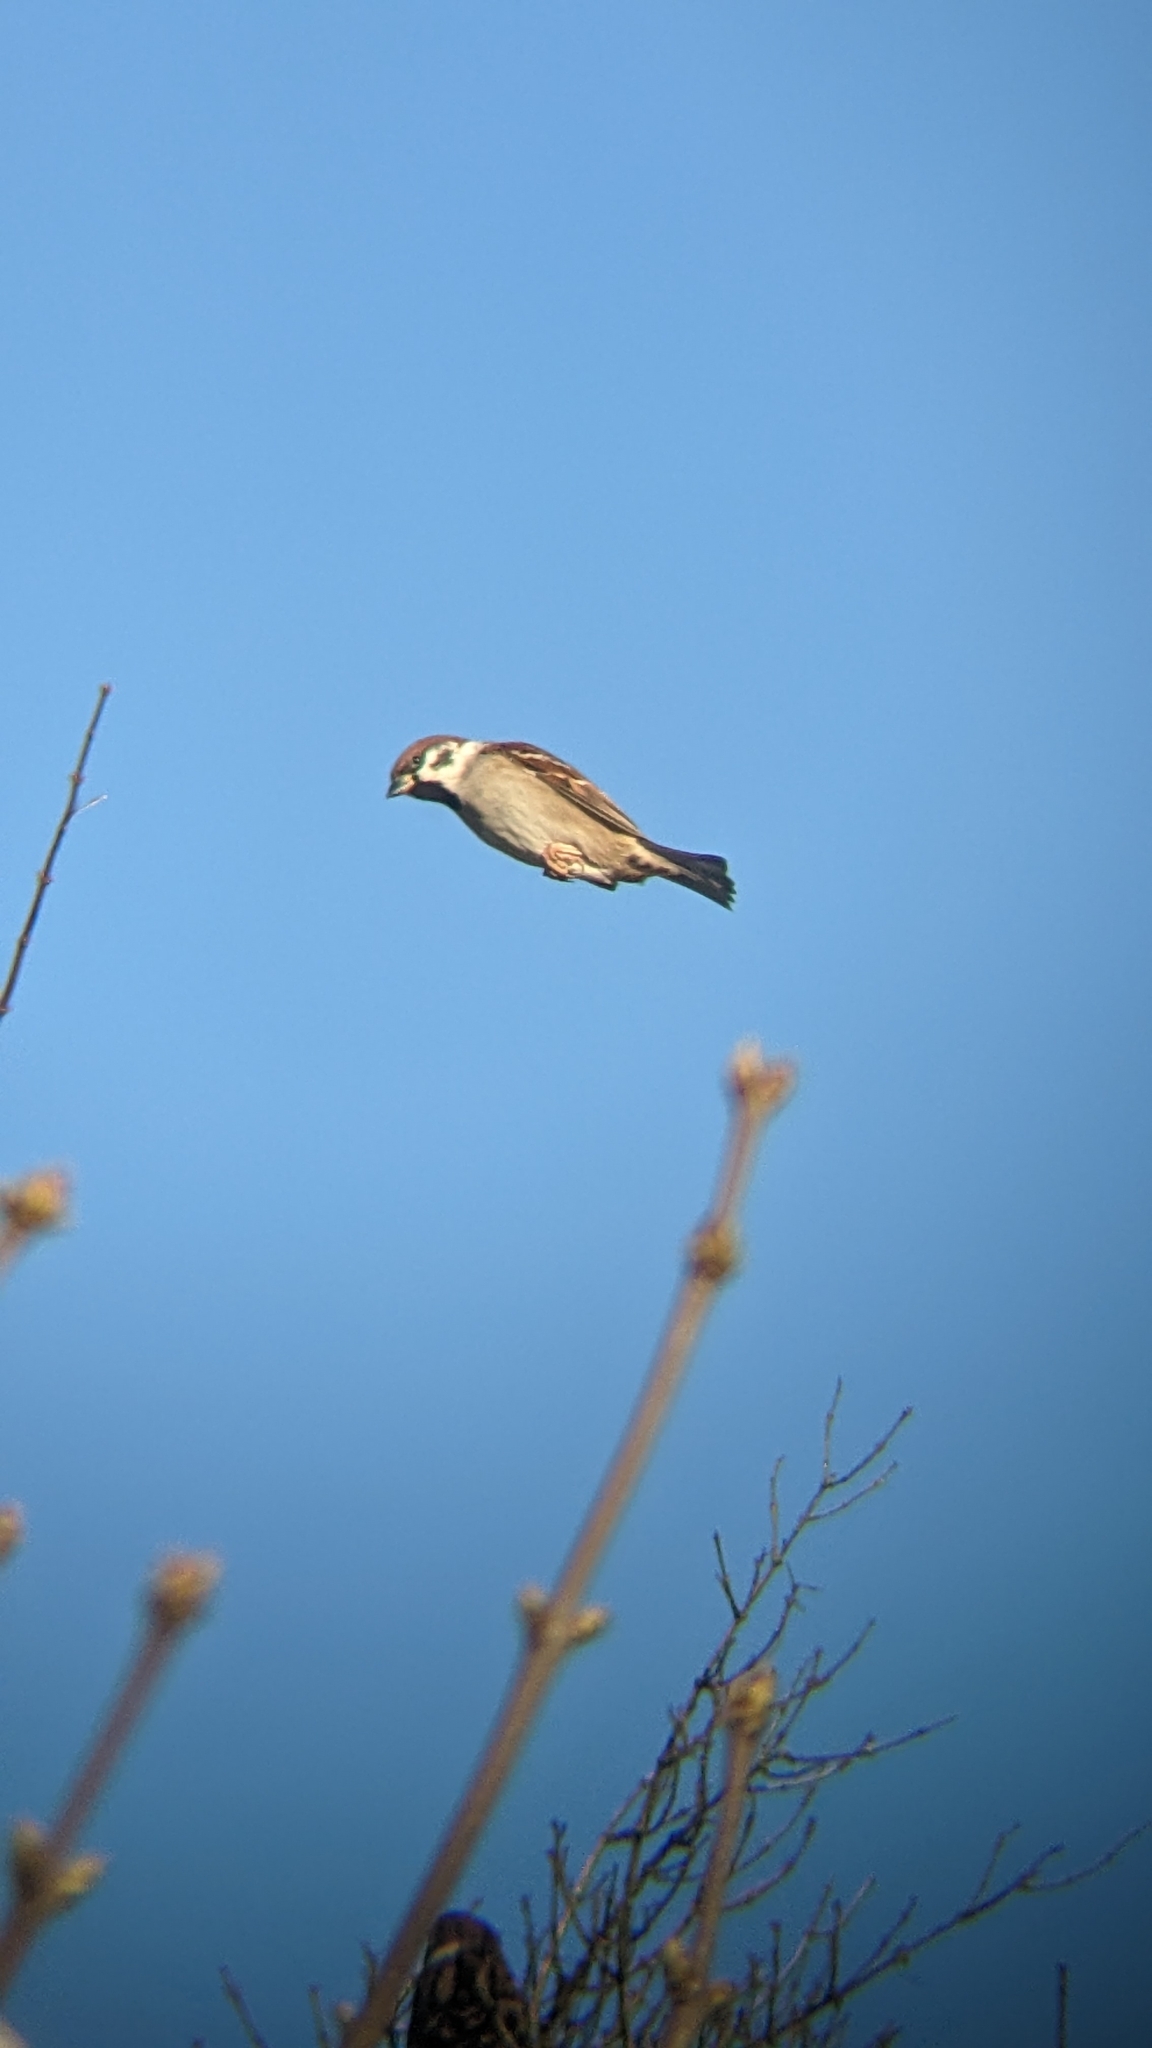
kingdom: Animalia
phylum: Chordata
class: Aves
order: Passeriformes
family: Passeridae
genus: Passer
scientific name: Passer montanus
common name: Eurasian tree sparrow
